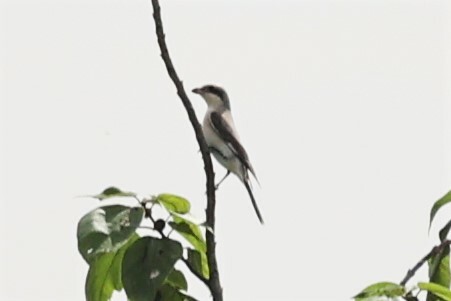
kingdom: Animalia
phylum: Chordata
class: Aves
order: Passeriformes
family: Laniidae
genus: Lanius
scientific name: Lanius minor
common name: Lesser grey shrike
